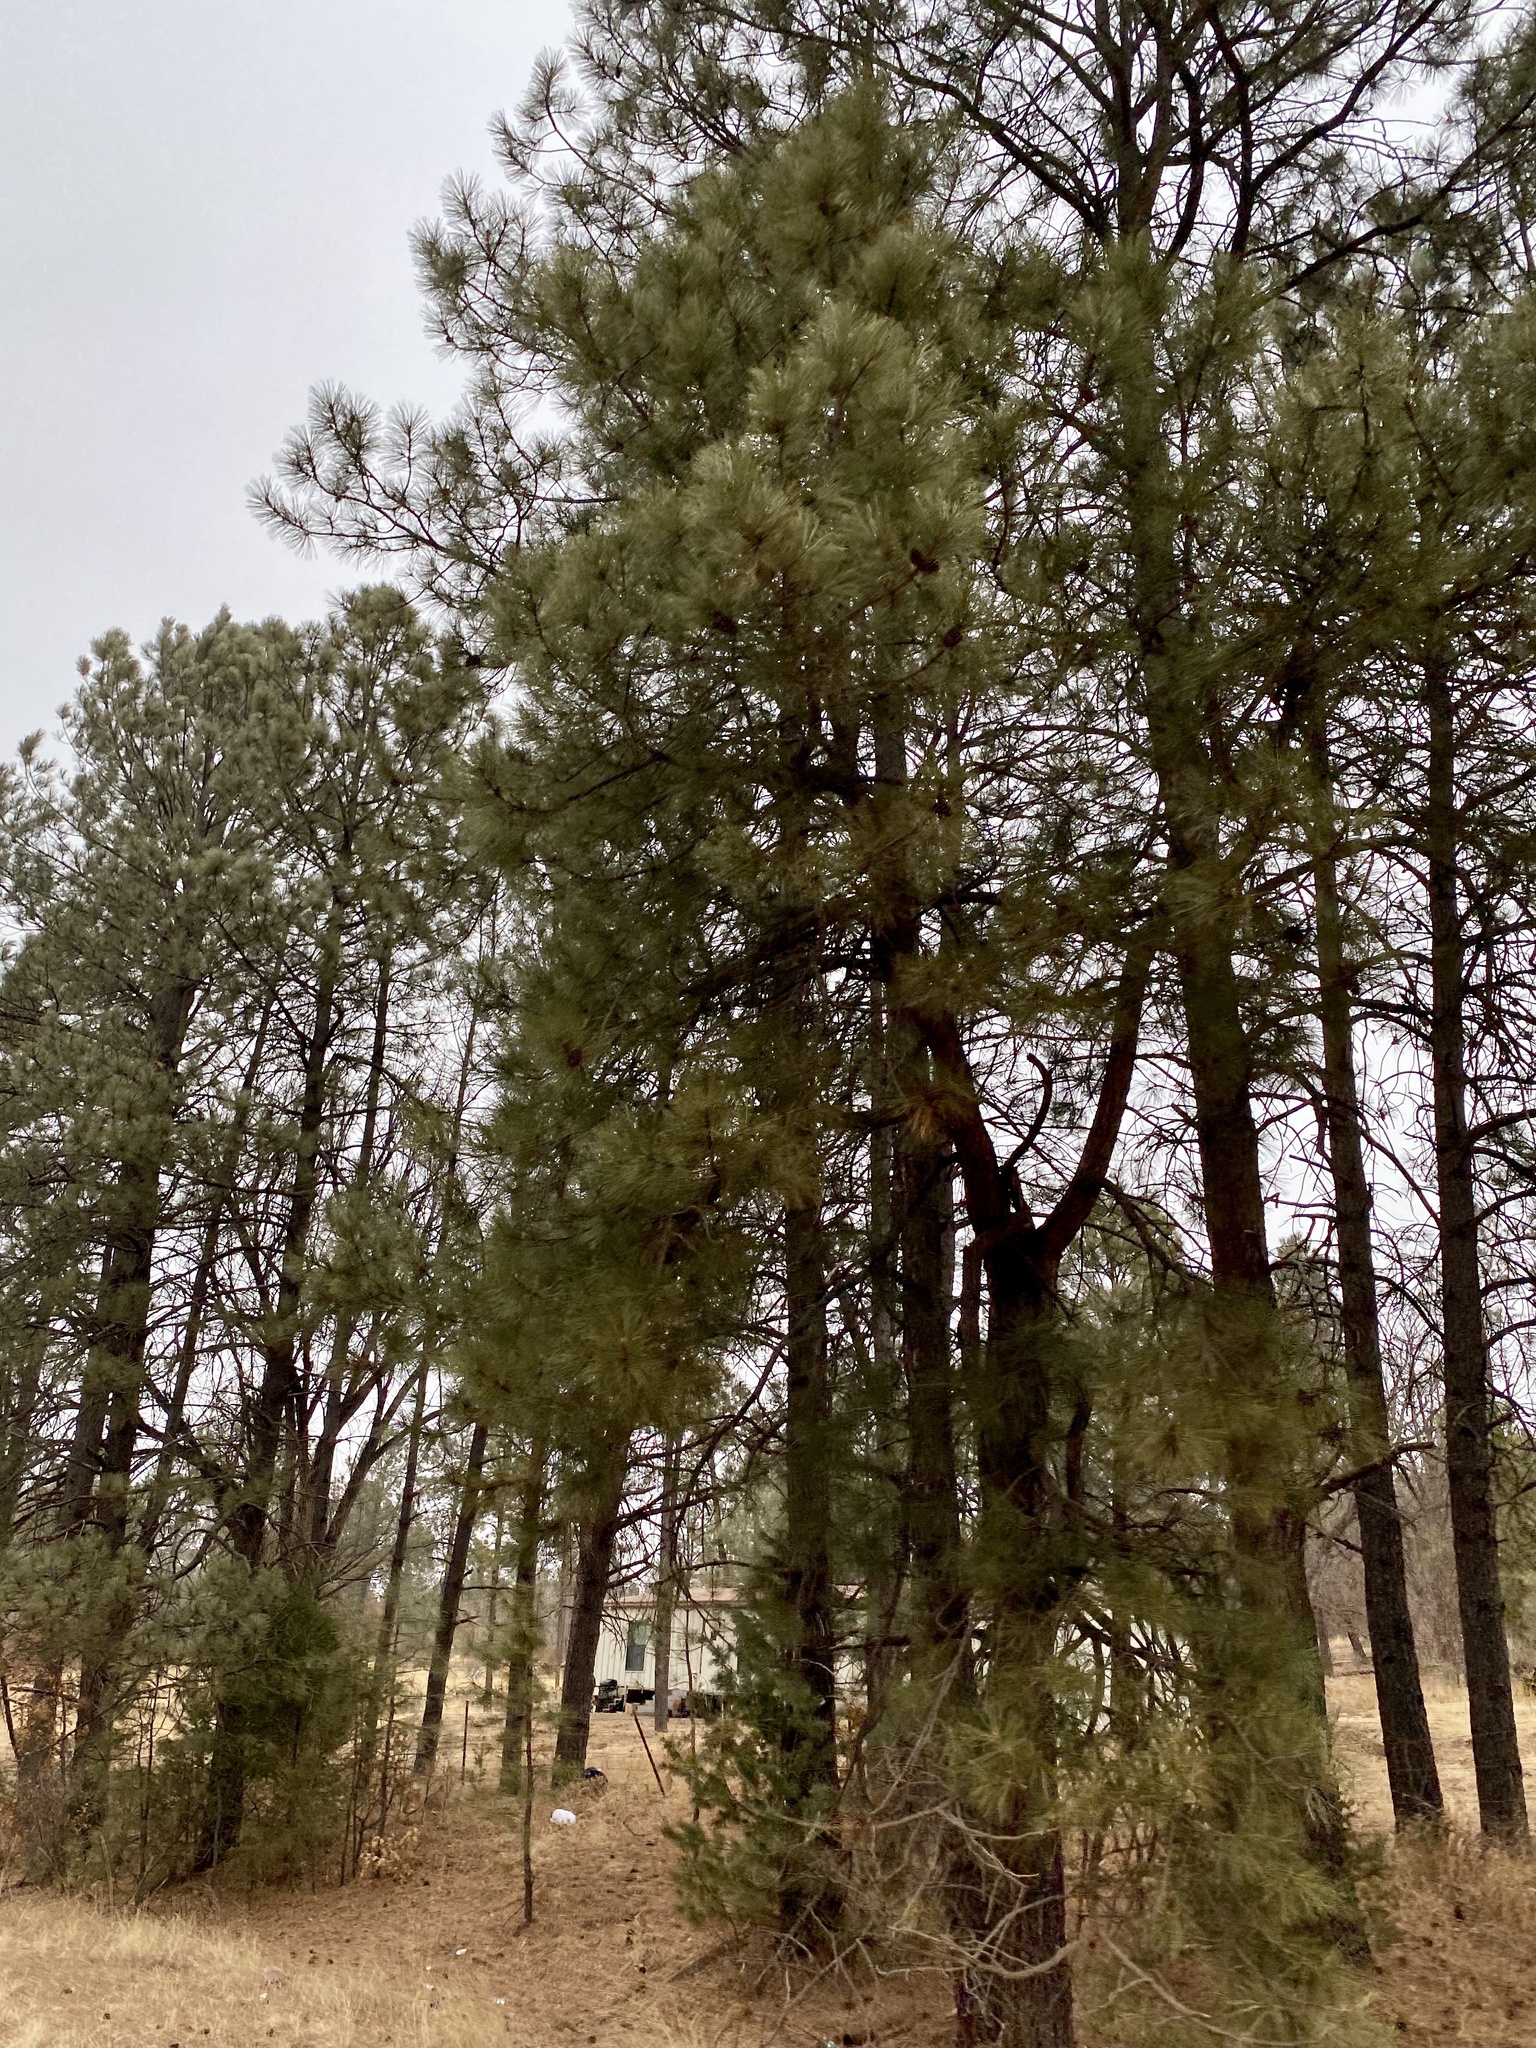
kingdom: Plantae
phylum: Tracheophyta
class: Pinopsida
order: Pinales
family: Pinaceae
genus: Pinus
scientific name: Pinus ponderosa
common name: Western yellow-pine
